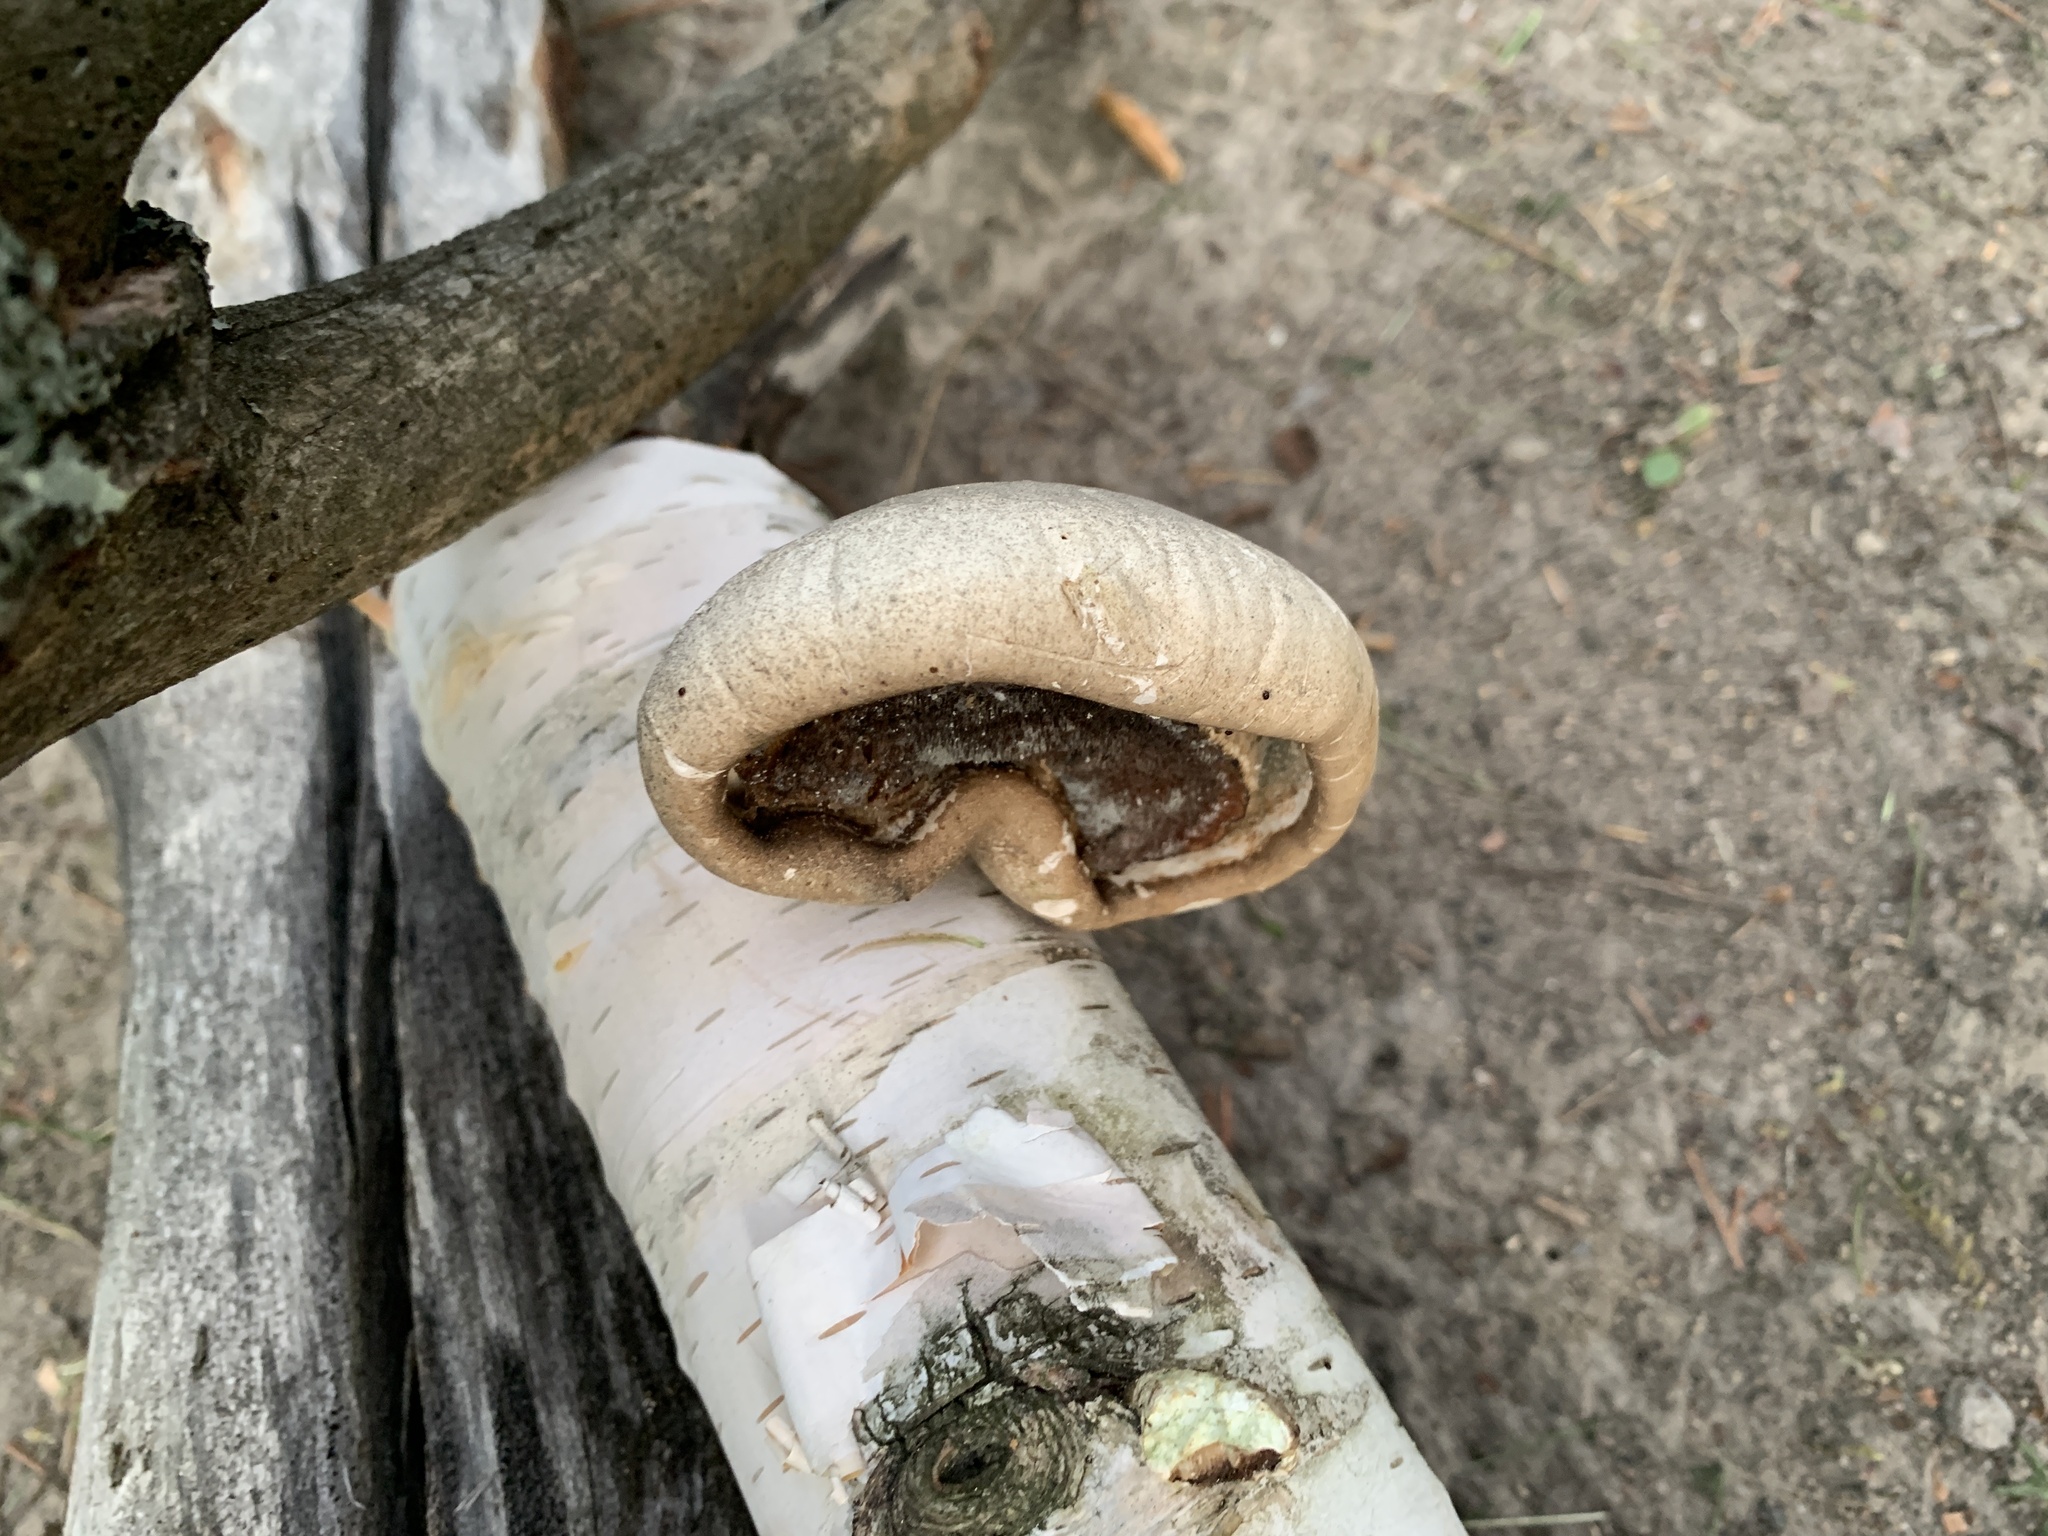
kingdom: Fungi
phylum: Basidiomycota
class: Agaricomycetes
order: Polyporales
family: Fomitopsidaceae
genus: Fomitopsis
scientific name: Fomitopsis betulina
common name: Birch polypore
